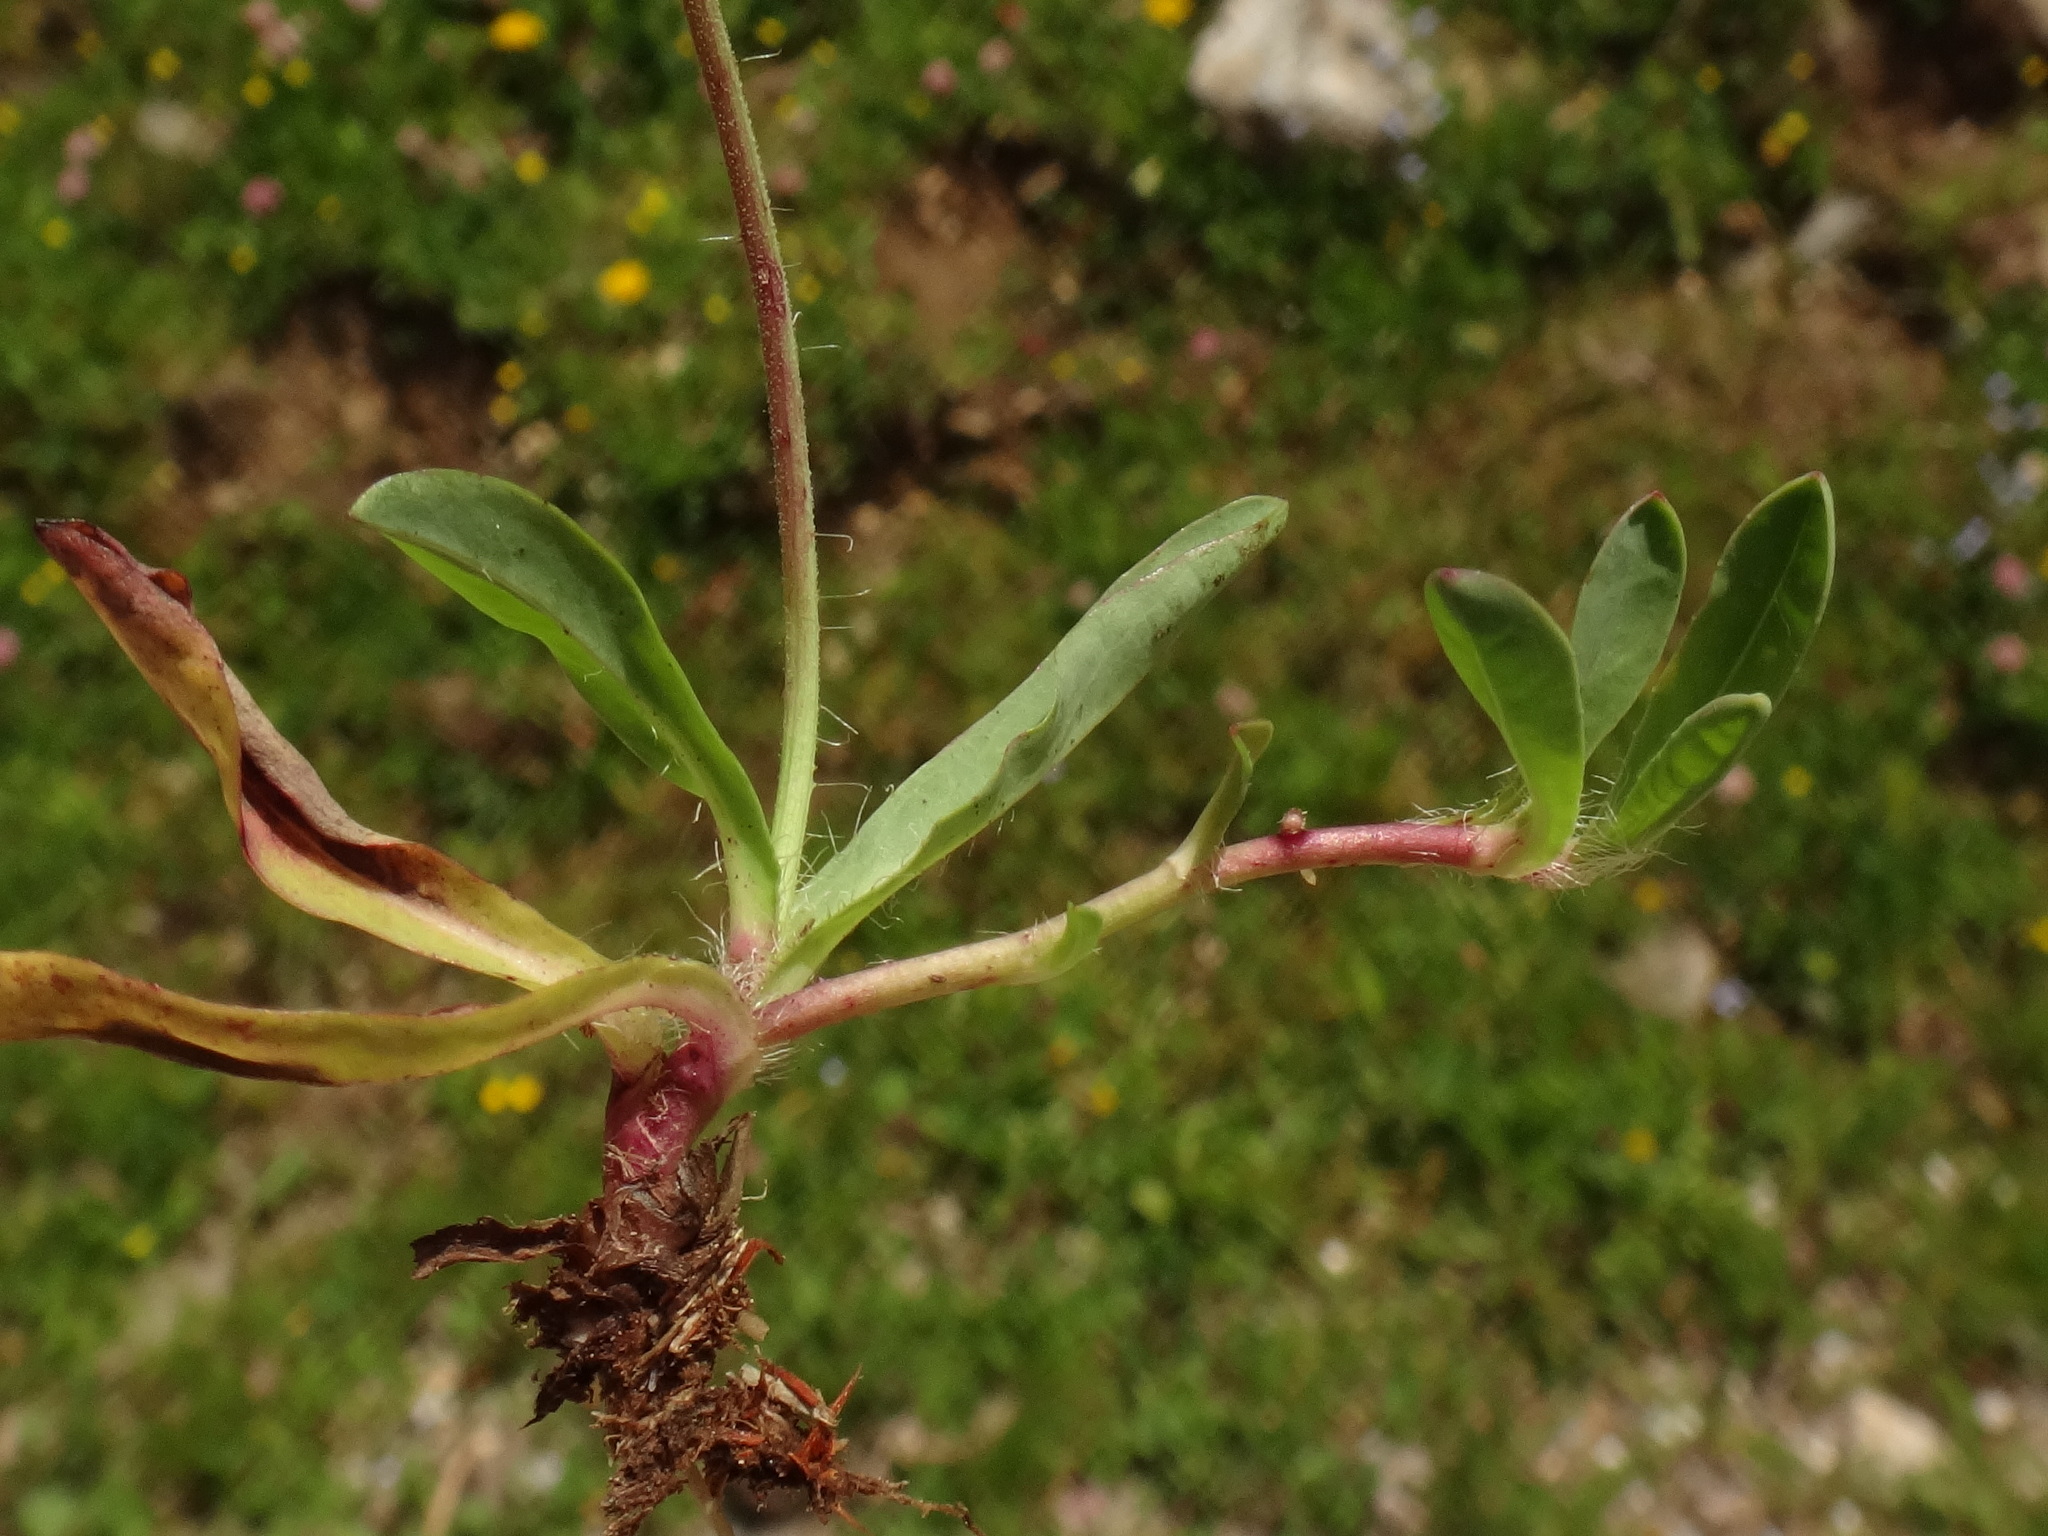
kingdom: Plantae
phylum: Tracheophyta
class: Magnoliopsida
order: Asterales
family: Asteraceae
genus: Pilosella
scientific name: Pilosella lactucella
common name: Glaucous fox-and-cubs
